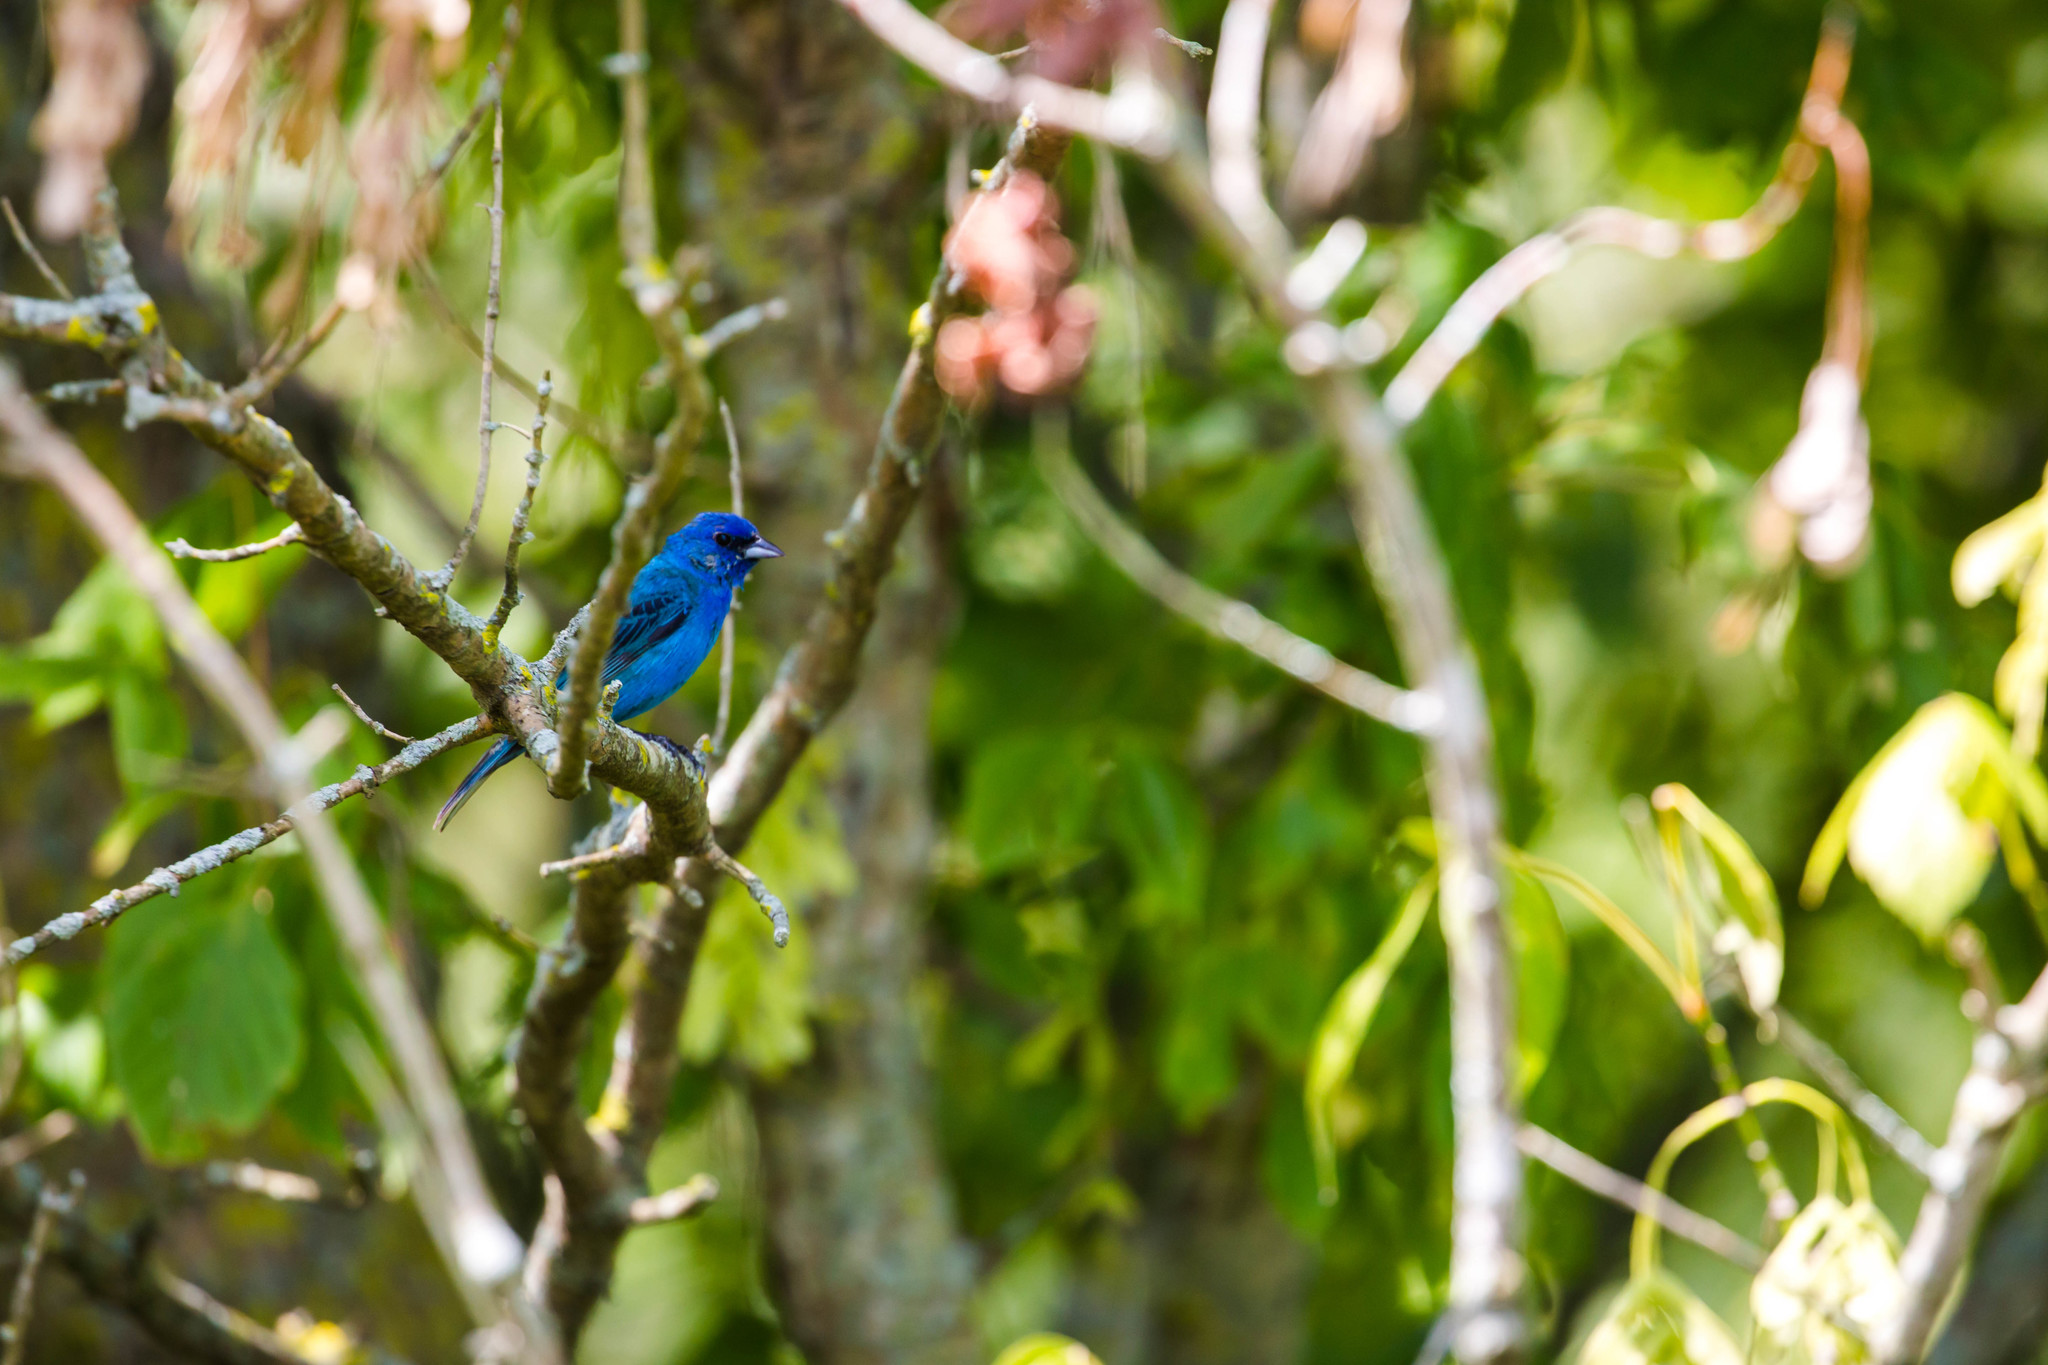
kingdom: Animalia
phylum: Chordata
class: Aves
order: Passeriformes
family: Cardinalidae
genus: Passerina
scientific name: Passerina cyanea
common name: Indigo bunting
